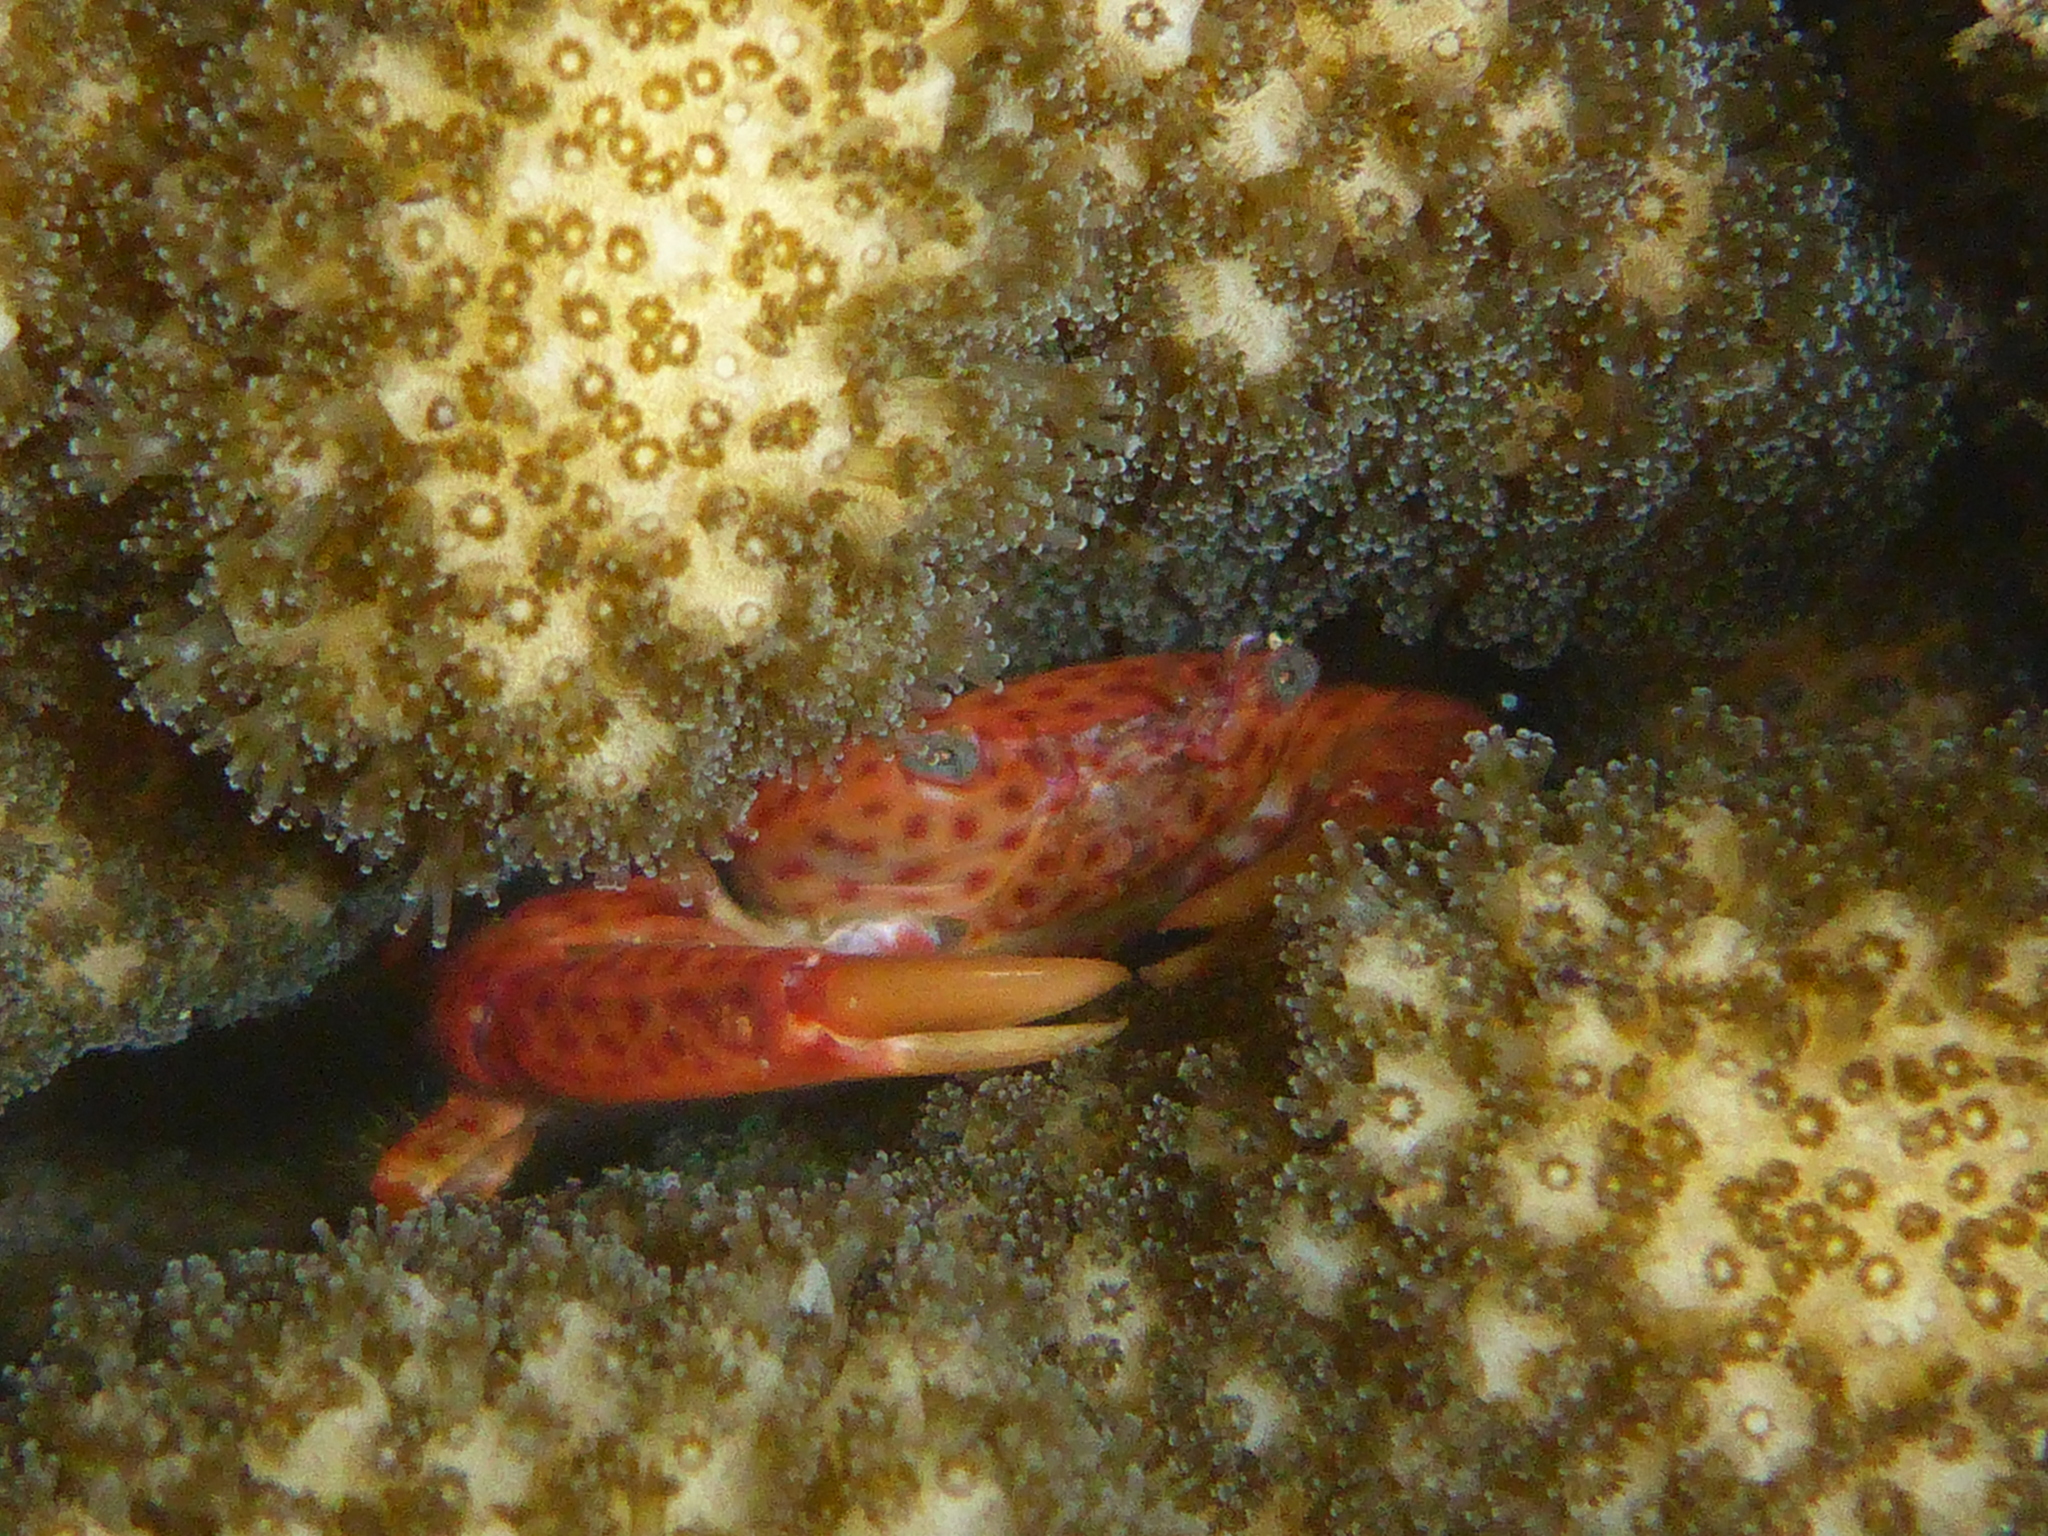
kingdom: Animalia
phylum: Arthropoda
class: Malacostraca
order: Decapoda
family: Trapeziidae
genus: Trapezia
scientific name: Trapezia intermedia
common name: Common guard crab
